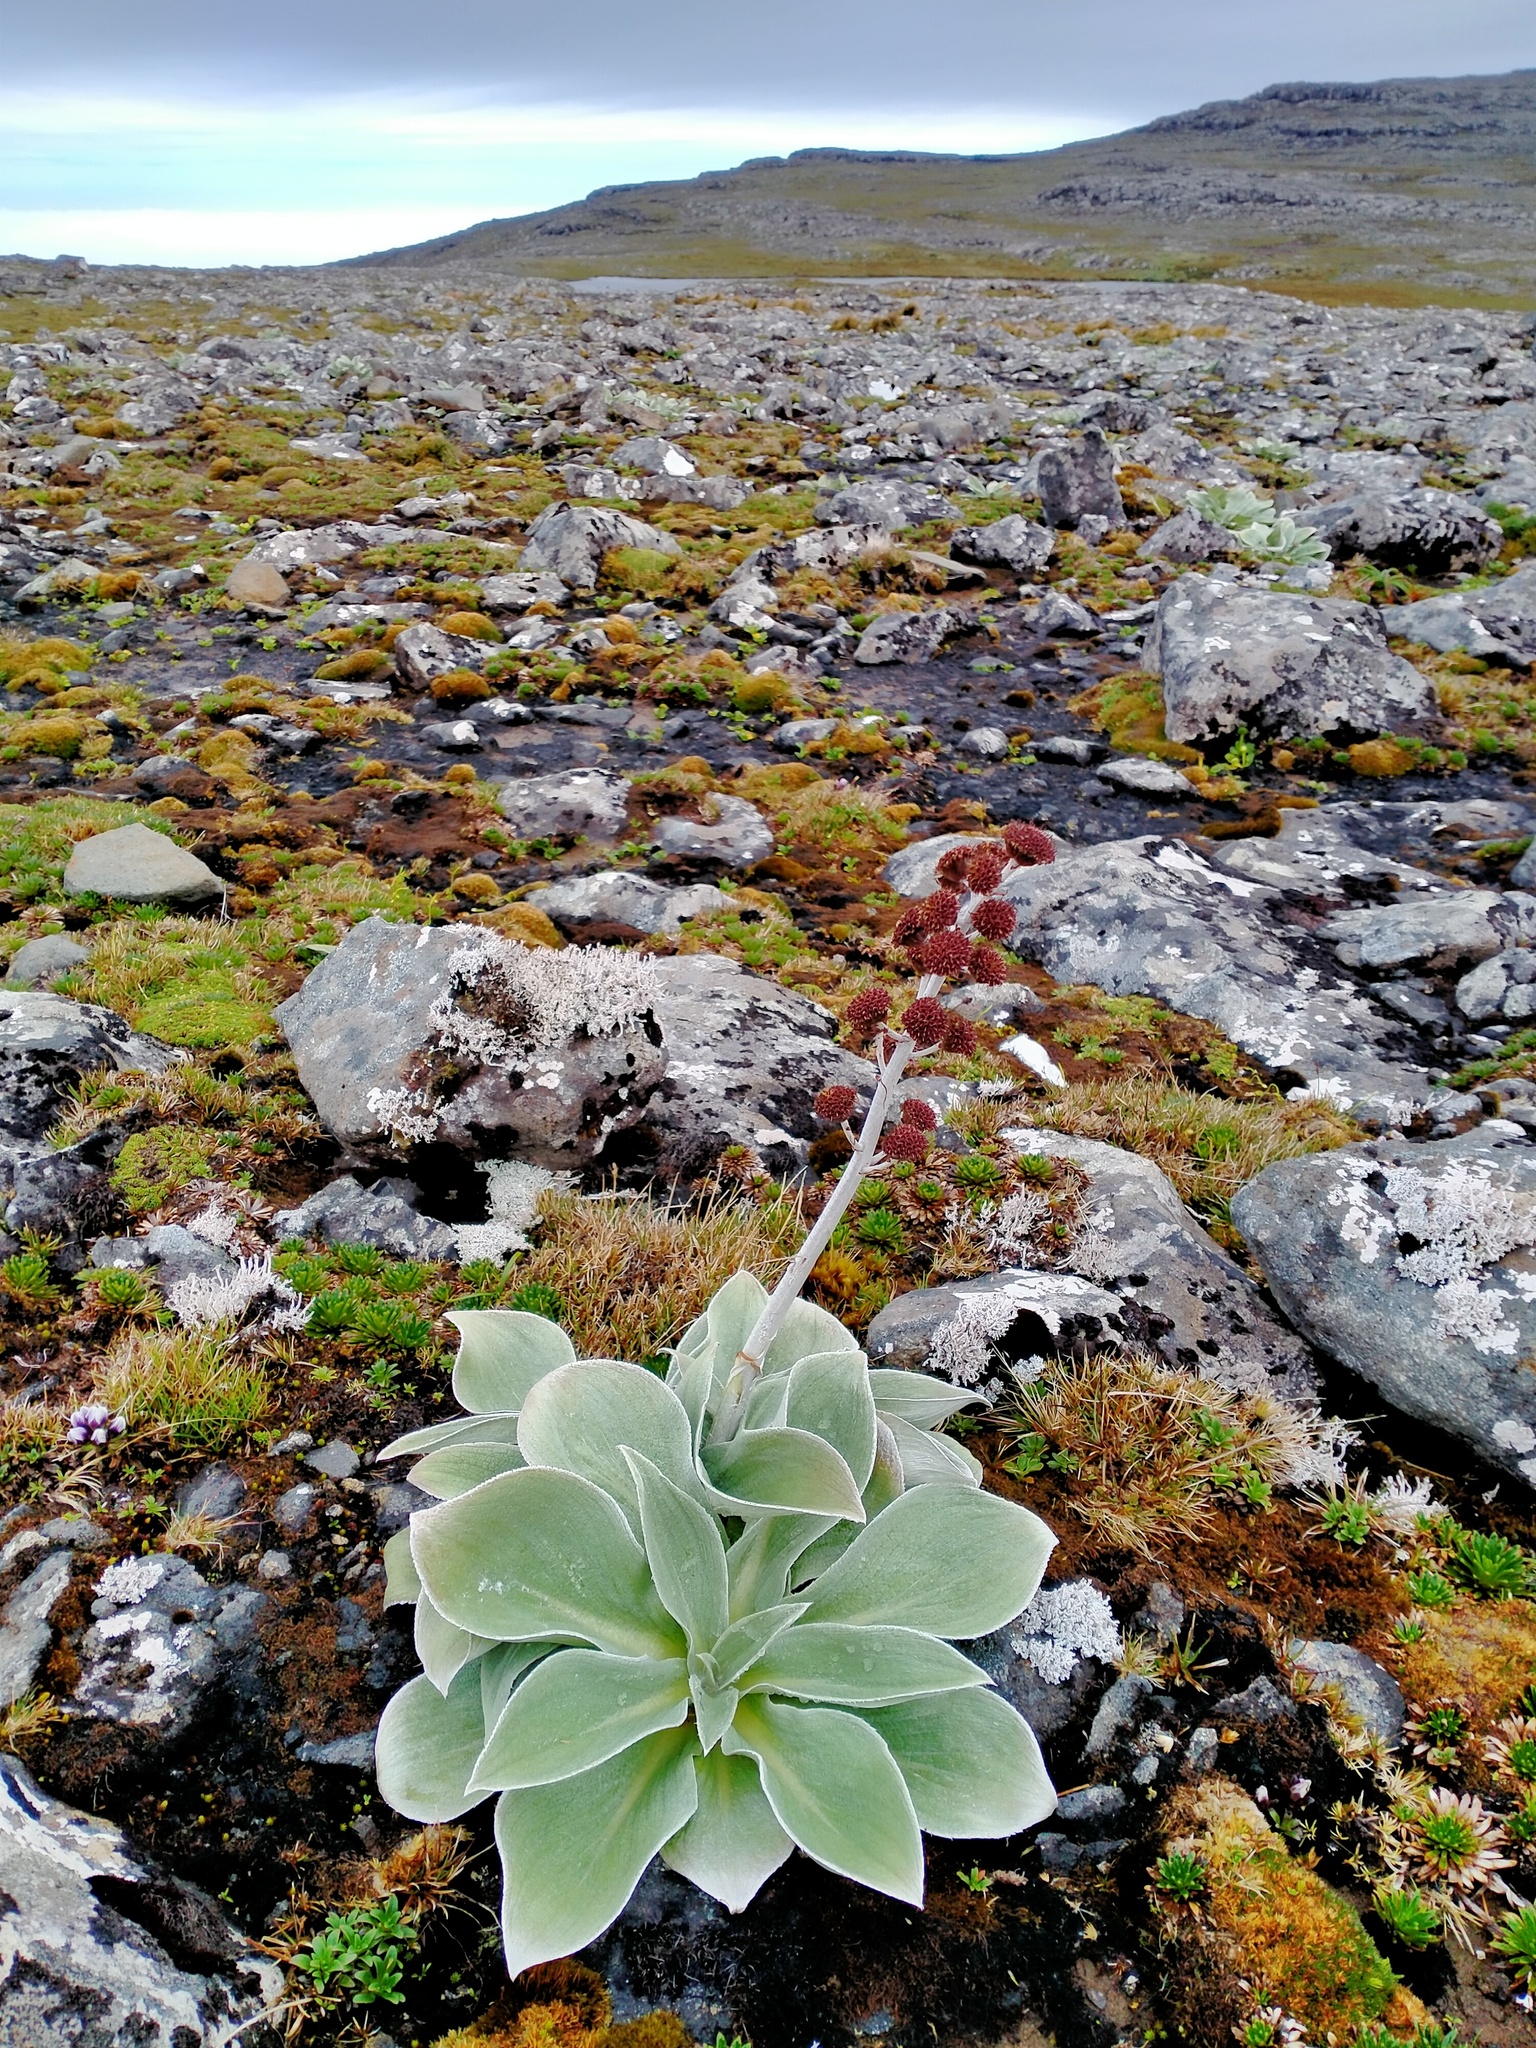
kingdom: Plantae
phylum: Tracheophyta
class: Magnoliopsida
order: Asterales
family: Asteraceae
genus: Pleurophyllum
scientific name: Pleurophyllum hookeri
